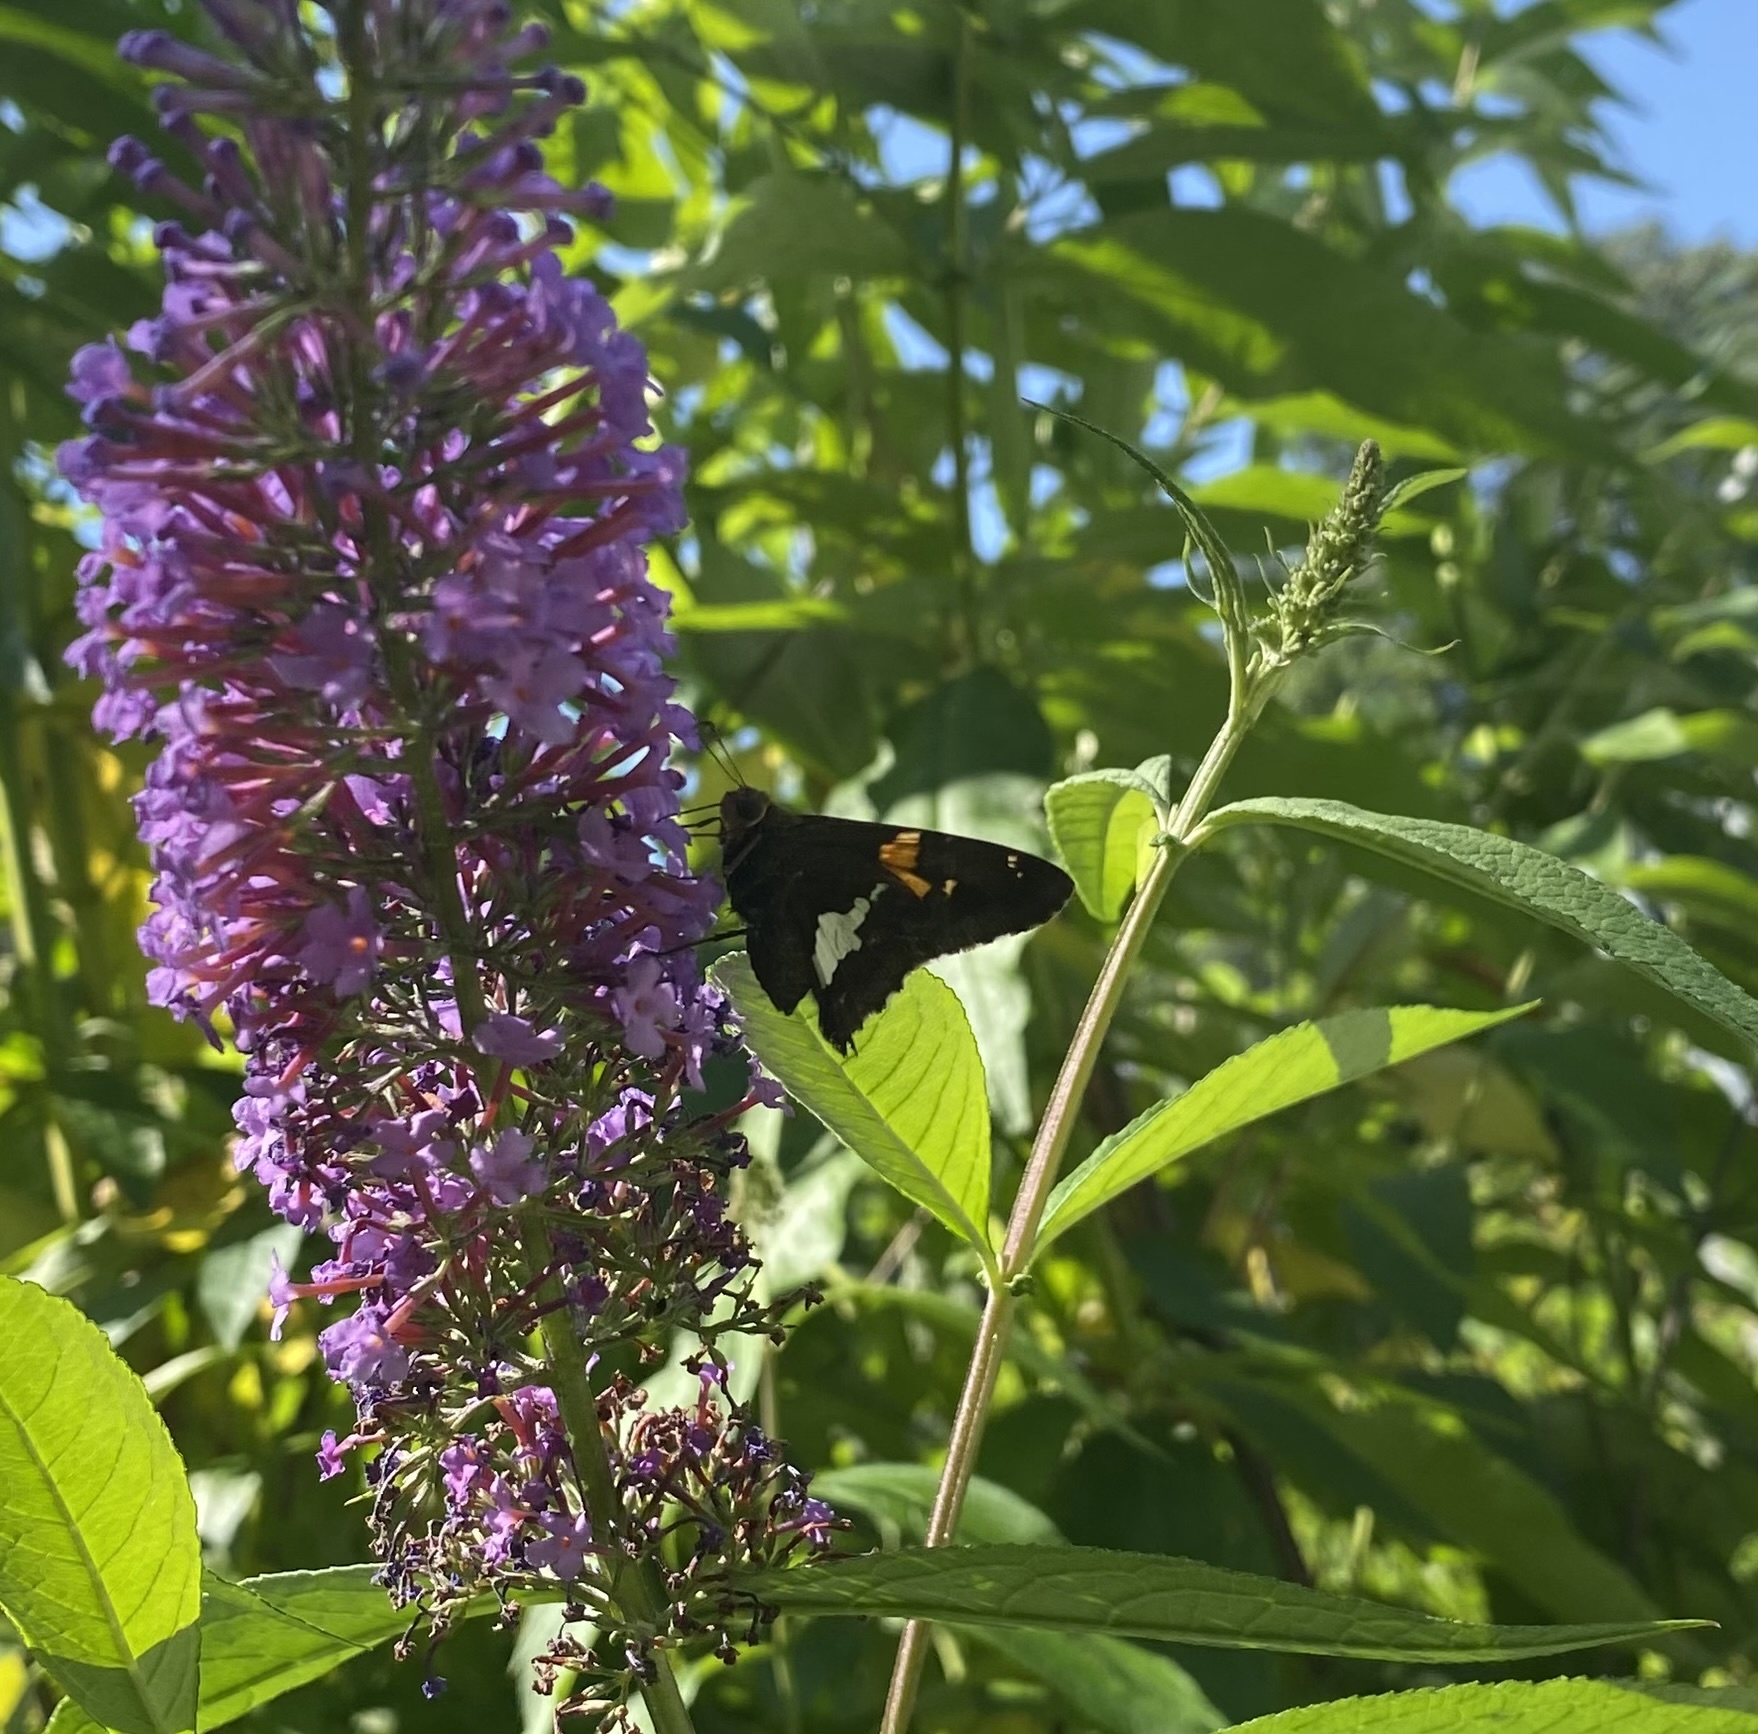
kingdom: Animalia
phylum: Arthropoda
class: Insecta
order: Lepidoptera
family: Hesperiidae
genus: Epargyreus
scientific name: Epargyreus clarus
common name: Silver-spotted skipper
